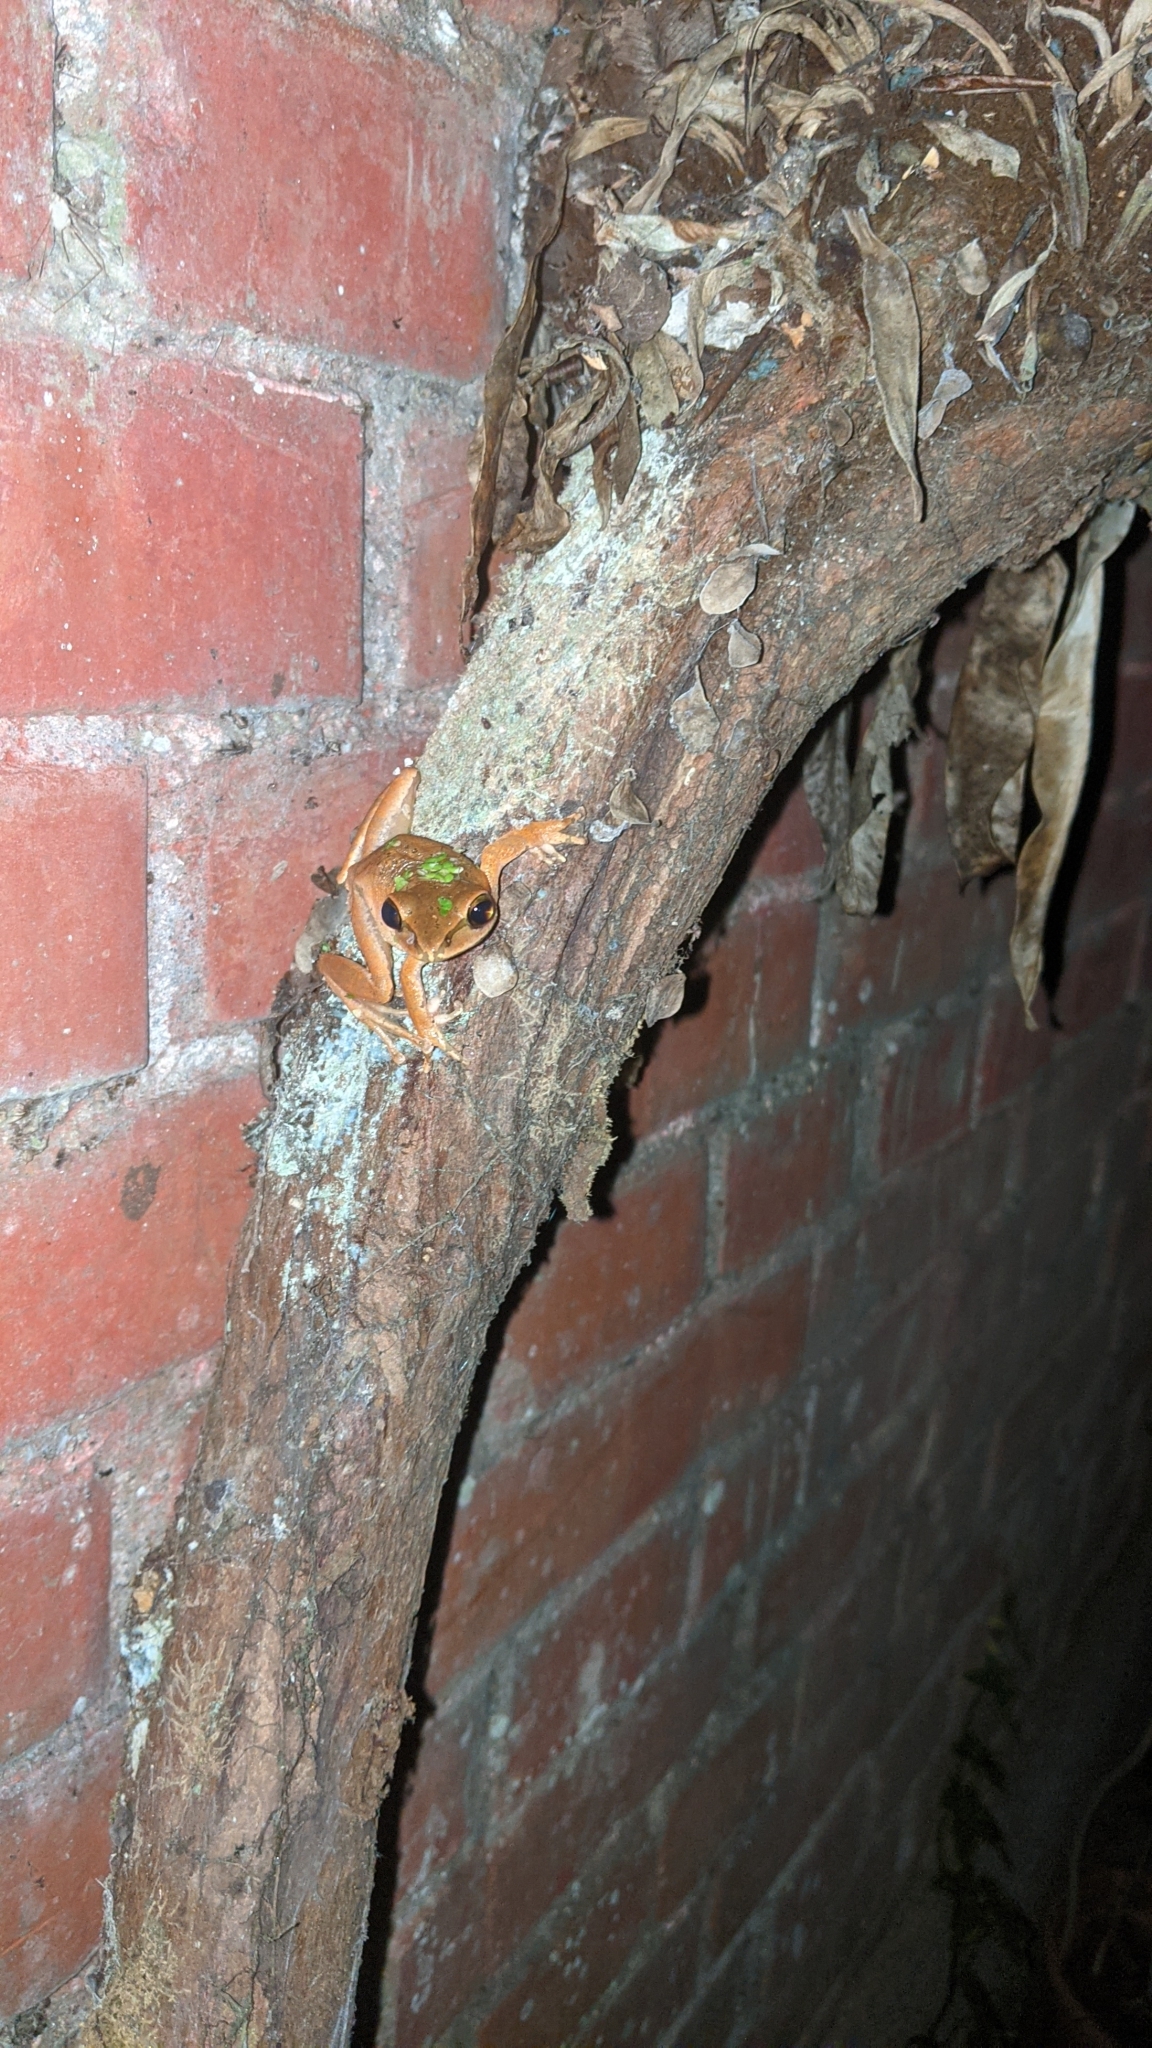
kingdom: Animalia
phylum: Chordata
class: Amphibia
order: Anura
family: Rhacophoridae
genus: Polypedates
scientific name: Polypedates braueri
